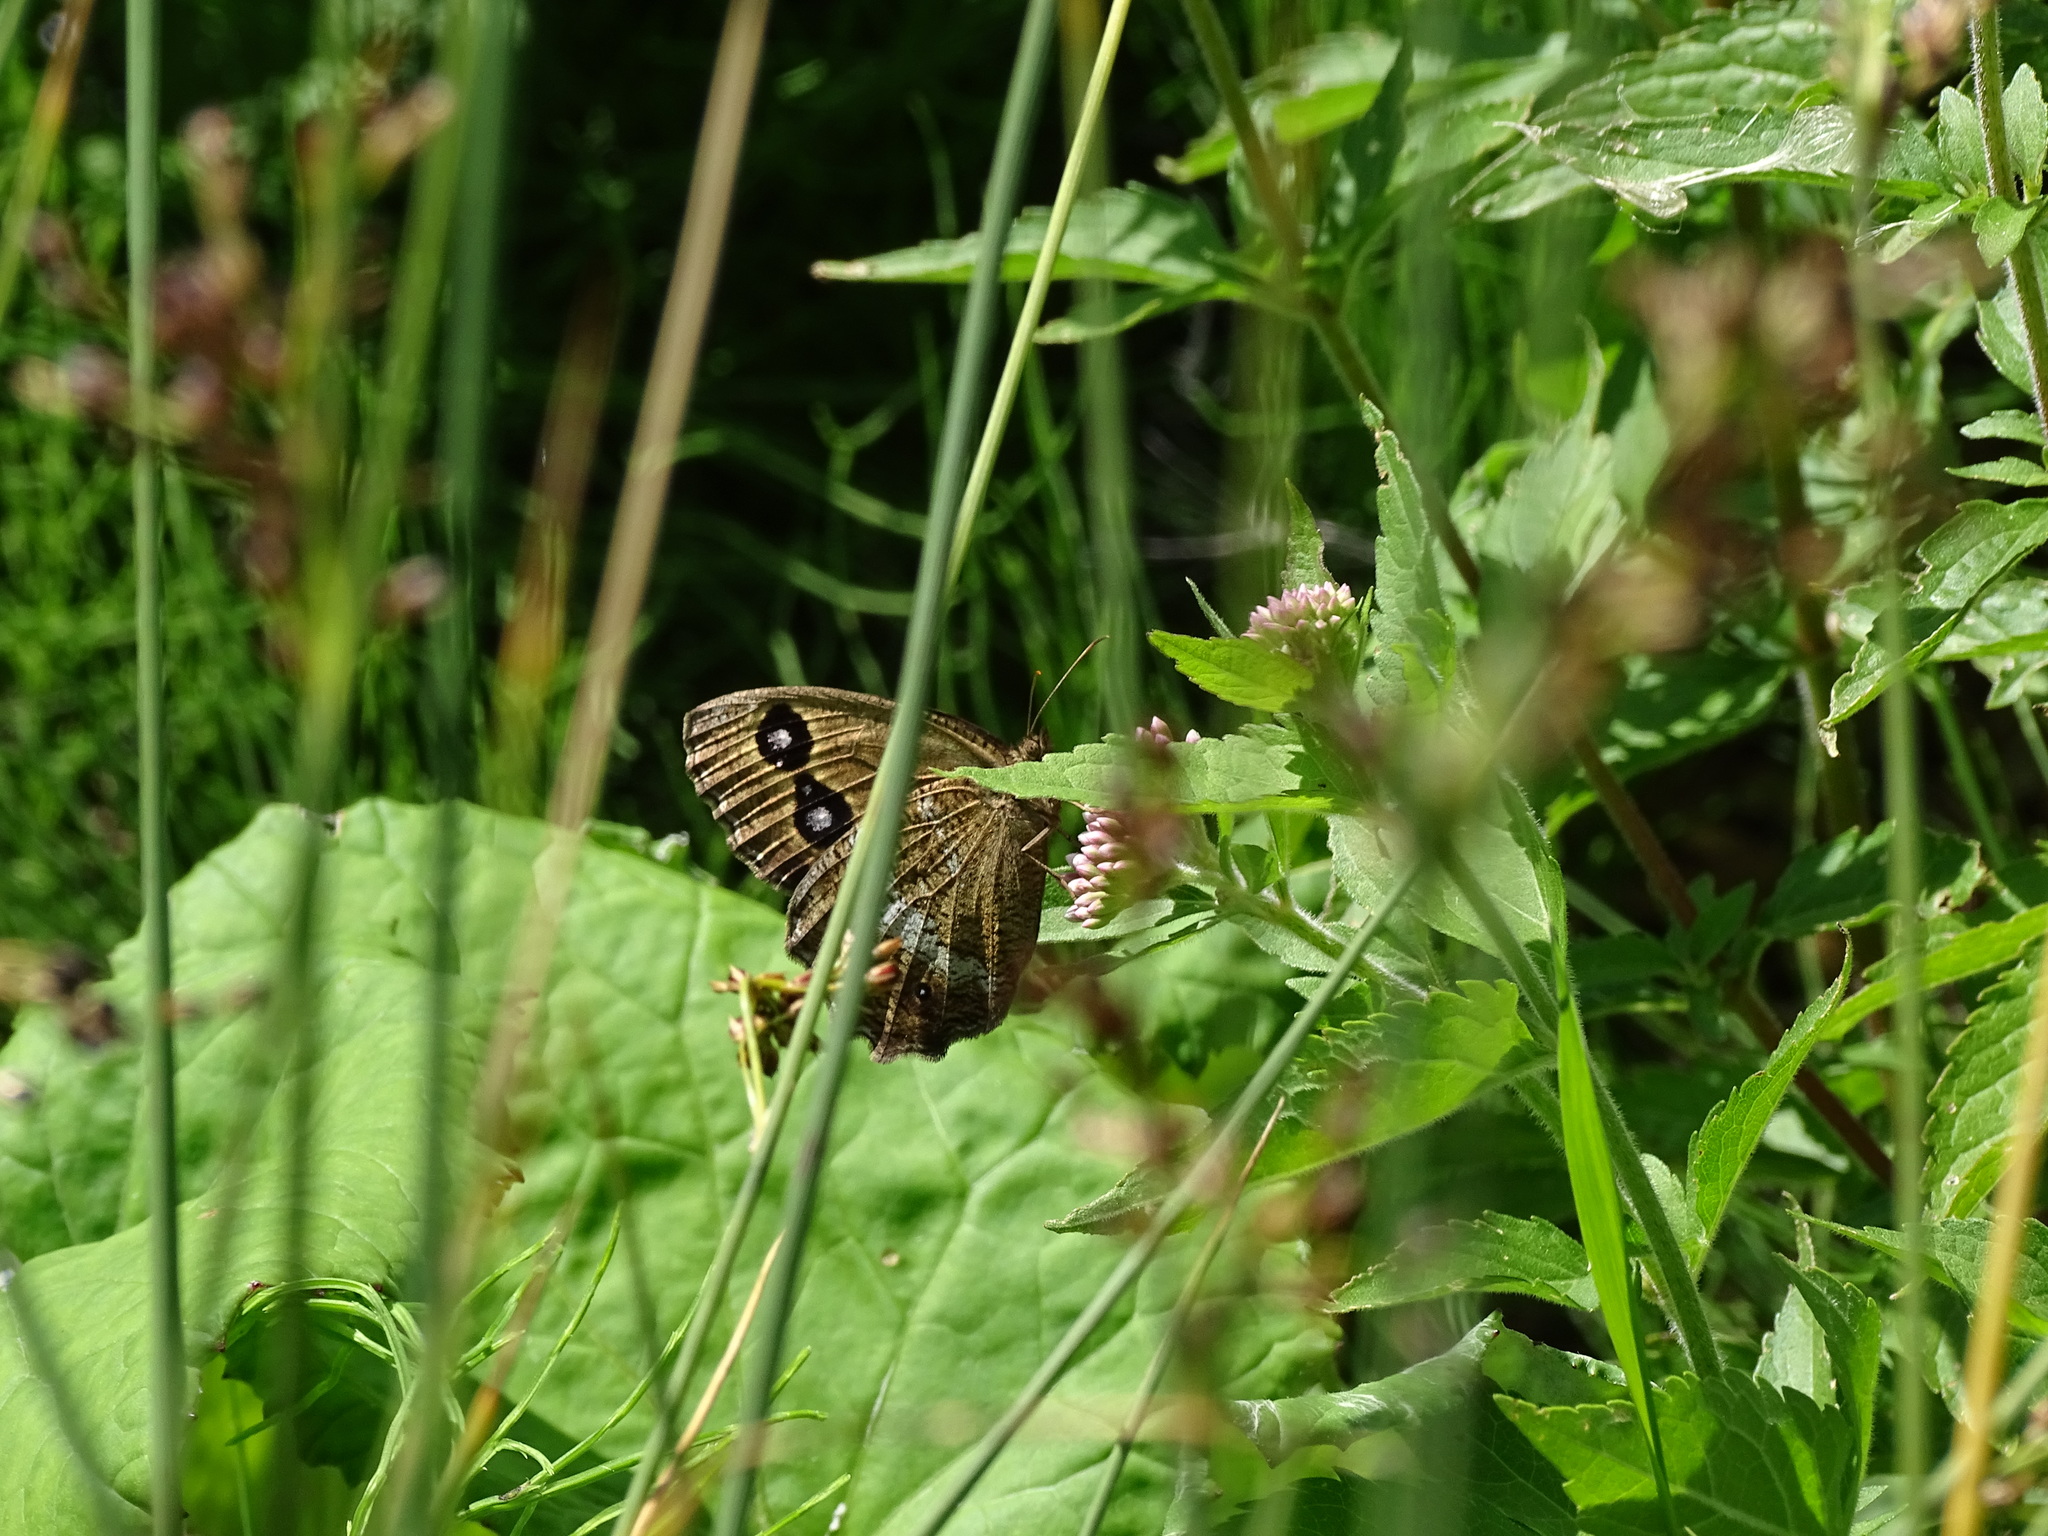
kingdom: Animalia
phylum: Arthropoda
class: Insecta
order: Lepidoptera
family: Nymphalidae
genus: Minois
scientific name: Minois dryas
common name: Dryad
